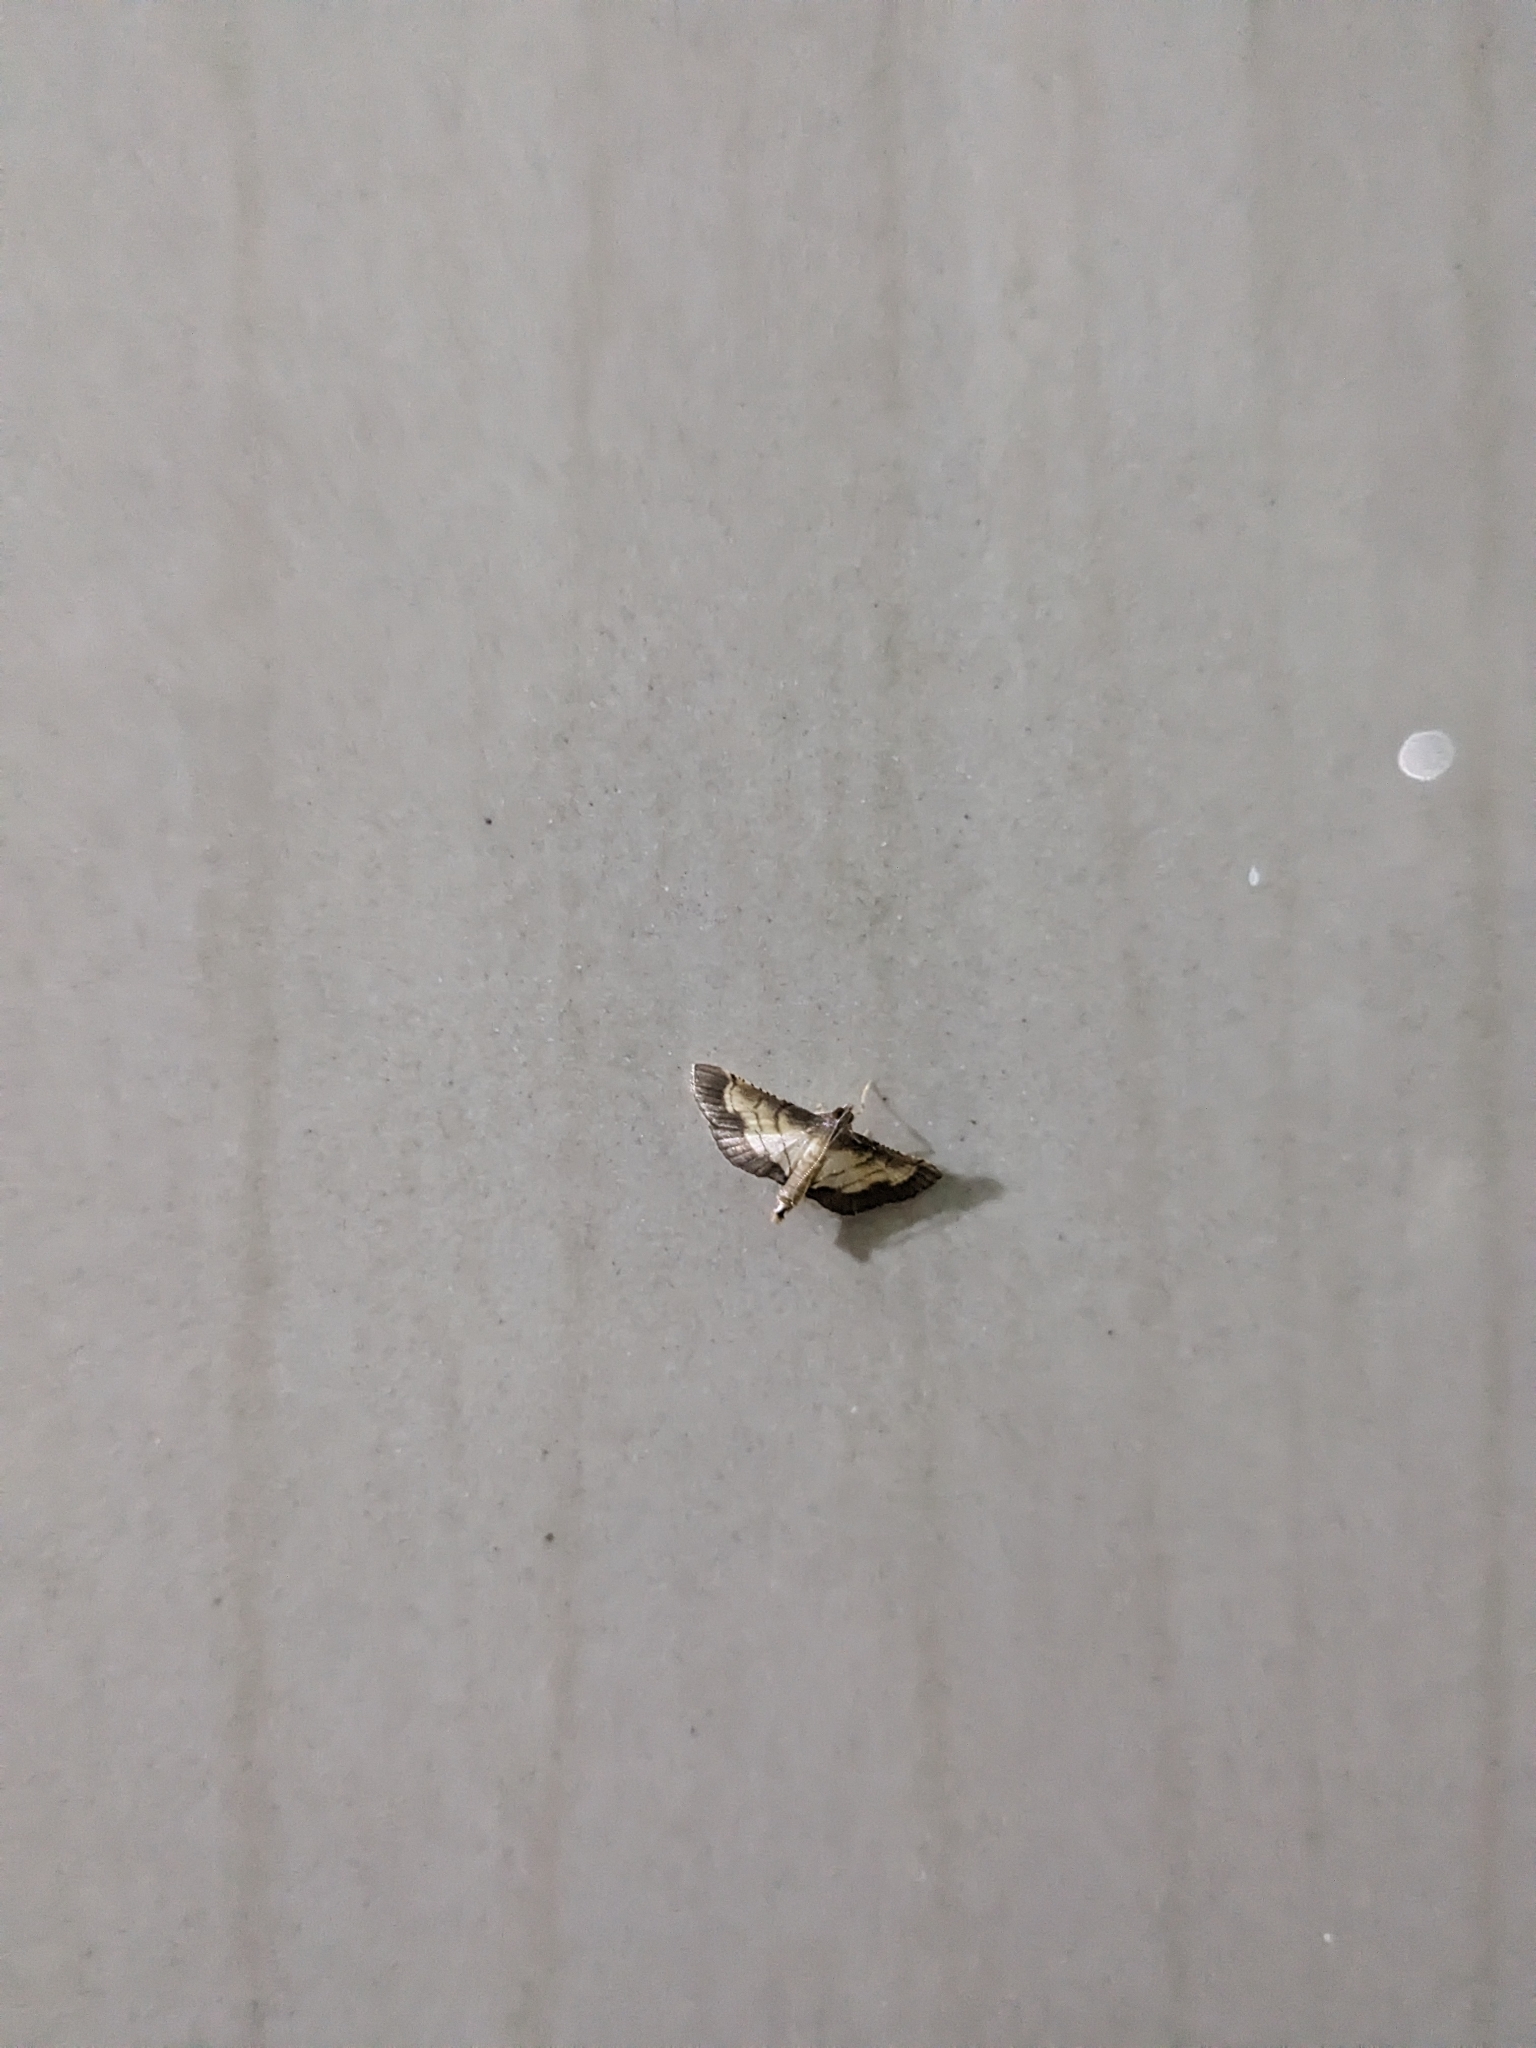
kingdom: Animalia
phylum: Arthropoda
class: Insecta
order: Lepidoptera
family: Crambidae
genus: Cnaphalocrocis
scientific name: Cnaphalocrocis trebiusalis
